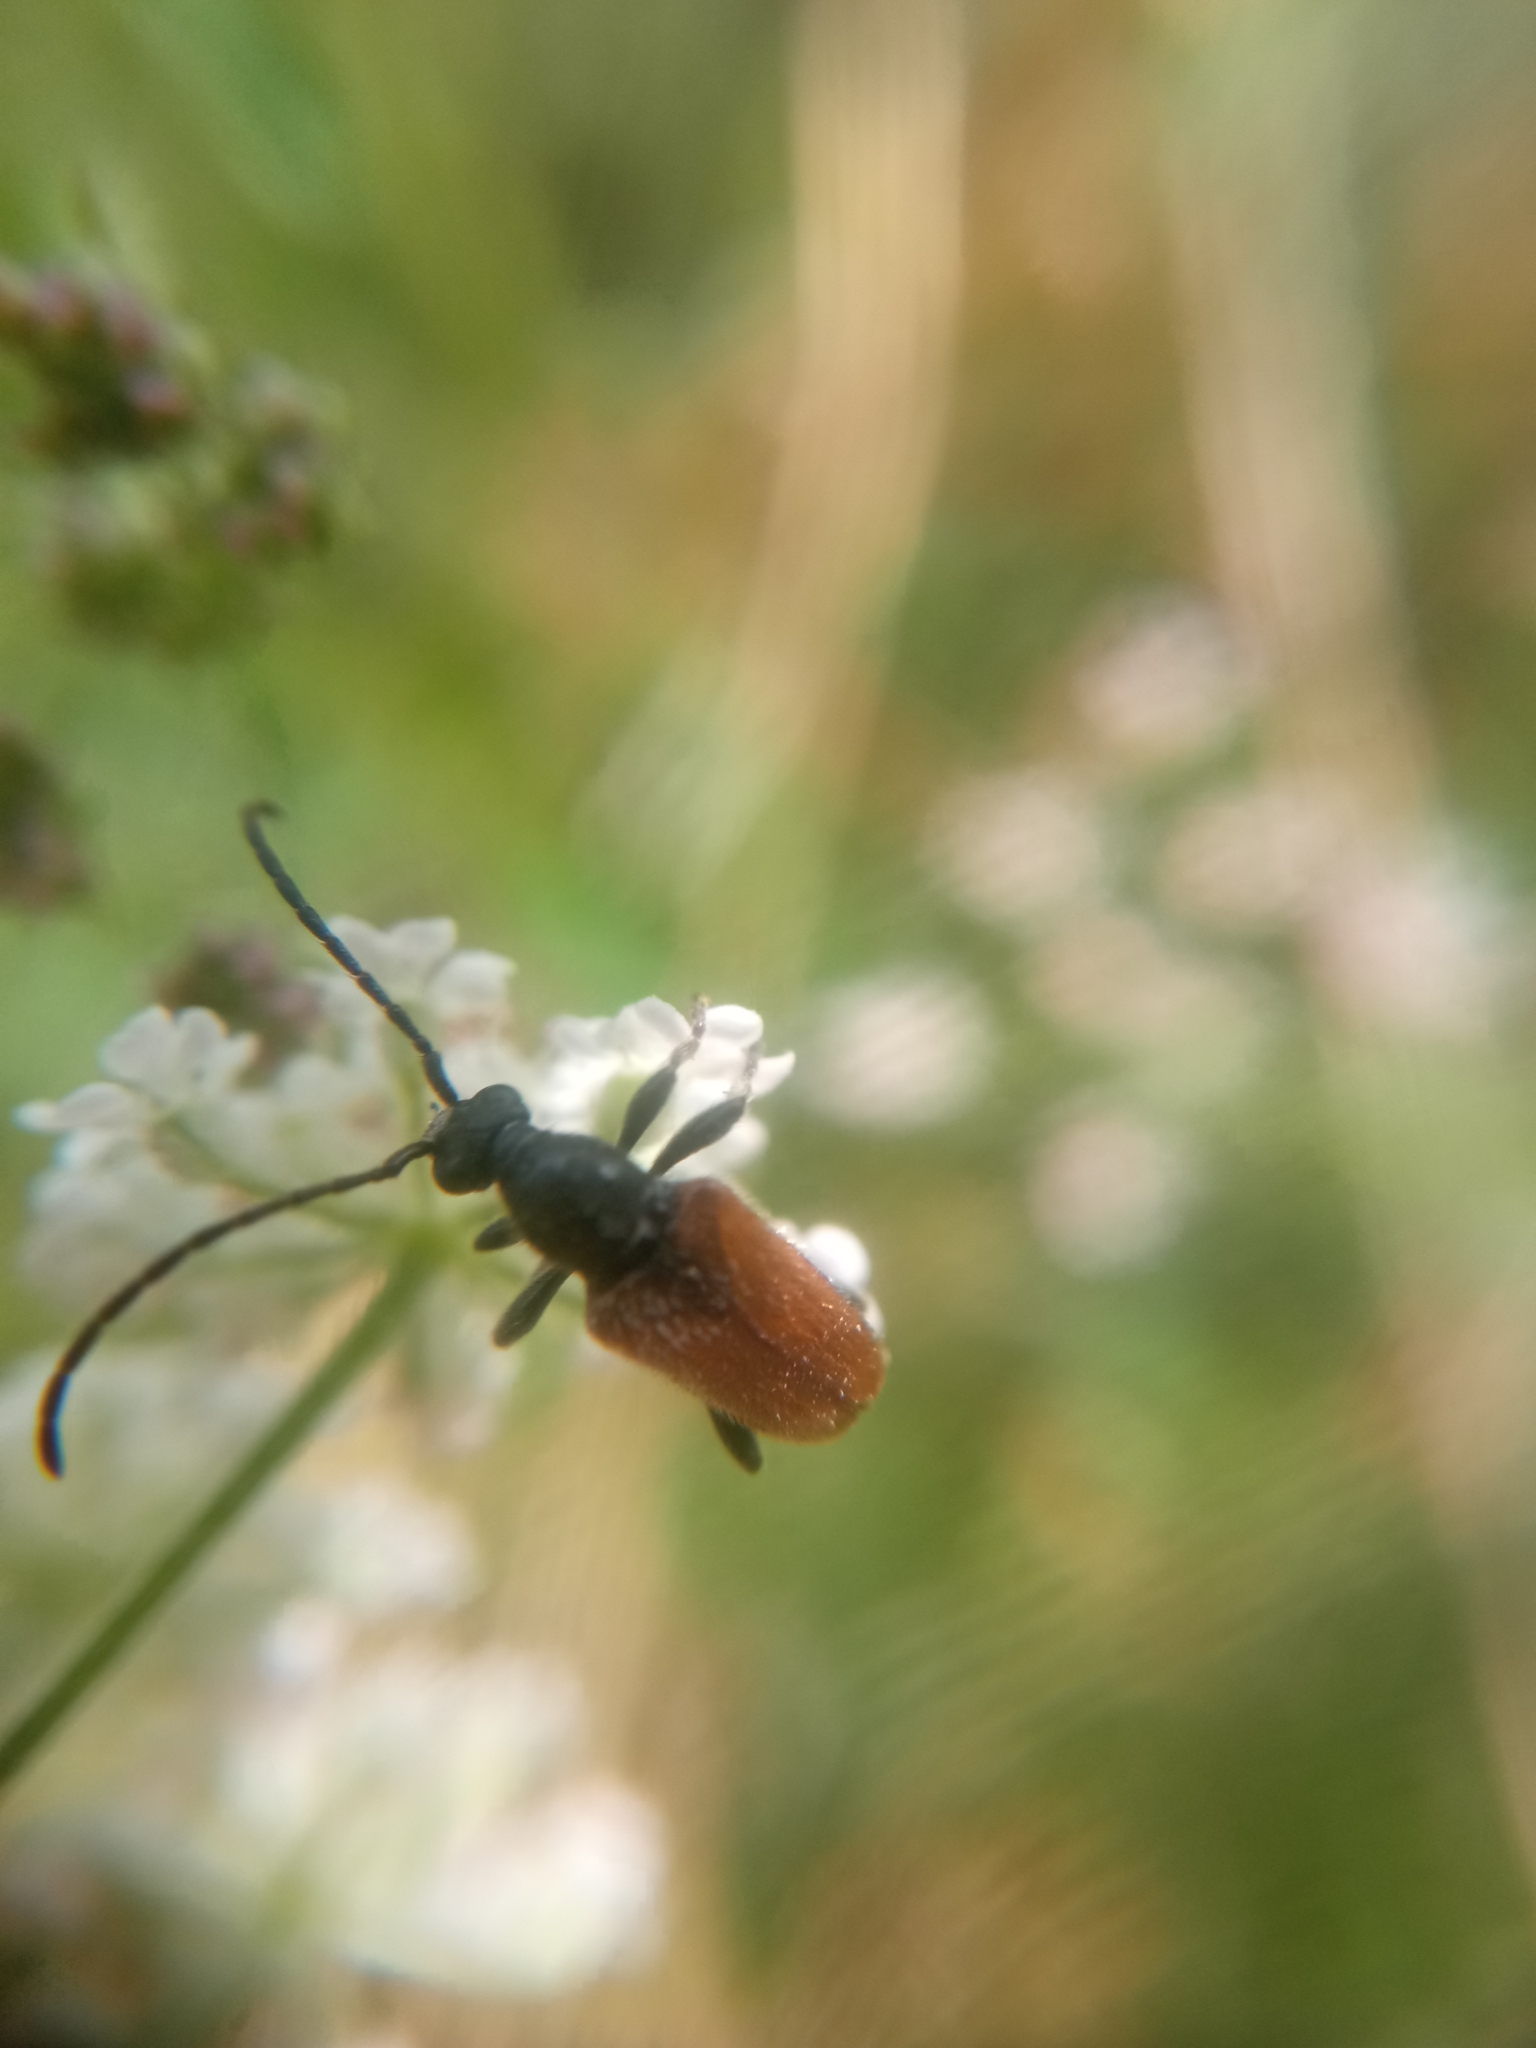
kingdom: Animalia
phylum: Arthropoda
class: Insecta
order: Coleoptera
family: Cerambycidae
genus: Pseudovadonia
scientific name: Pseudovadonia livida
